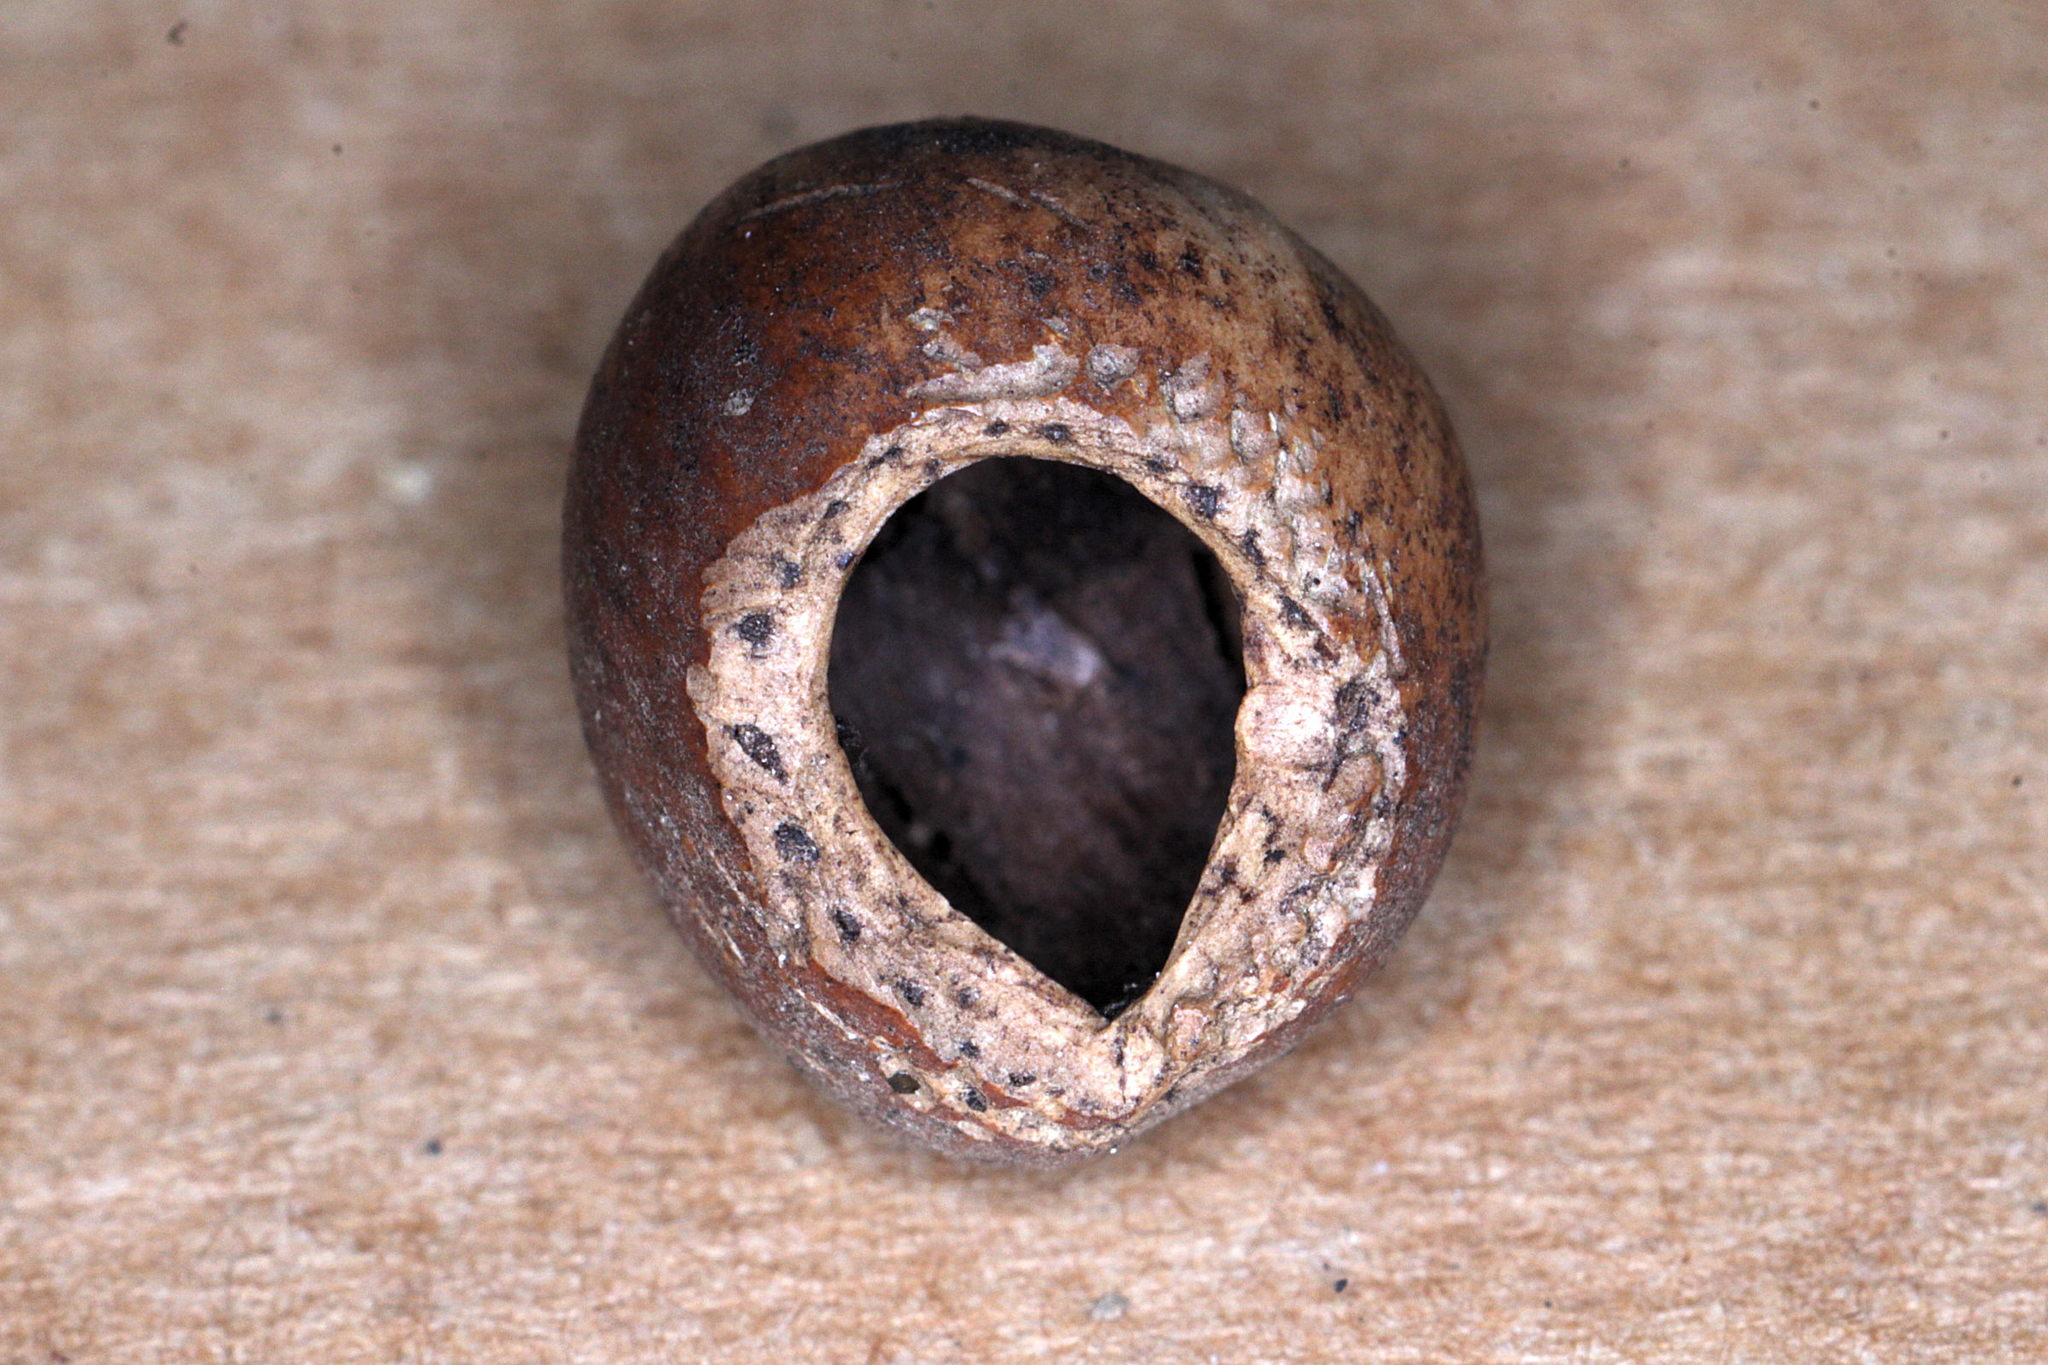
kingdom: Animalia
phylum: Chordata
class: Mammalia
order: Rodentia
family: Gliridae
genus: Muscardinus
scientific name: Muscardinus avellanarius
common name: Hazel dormouse
